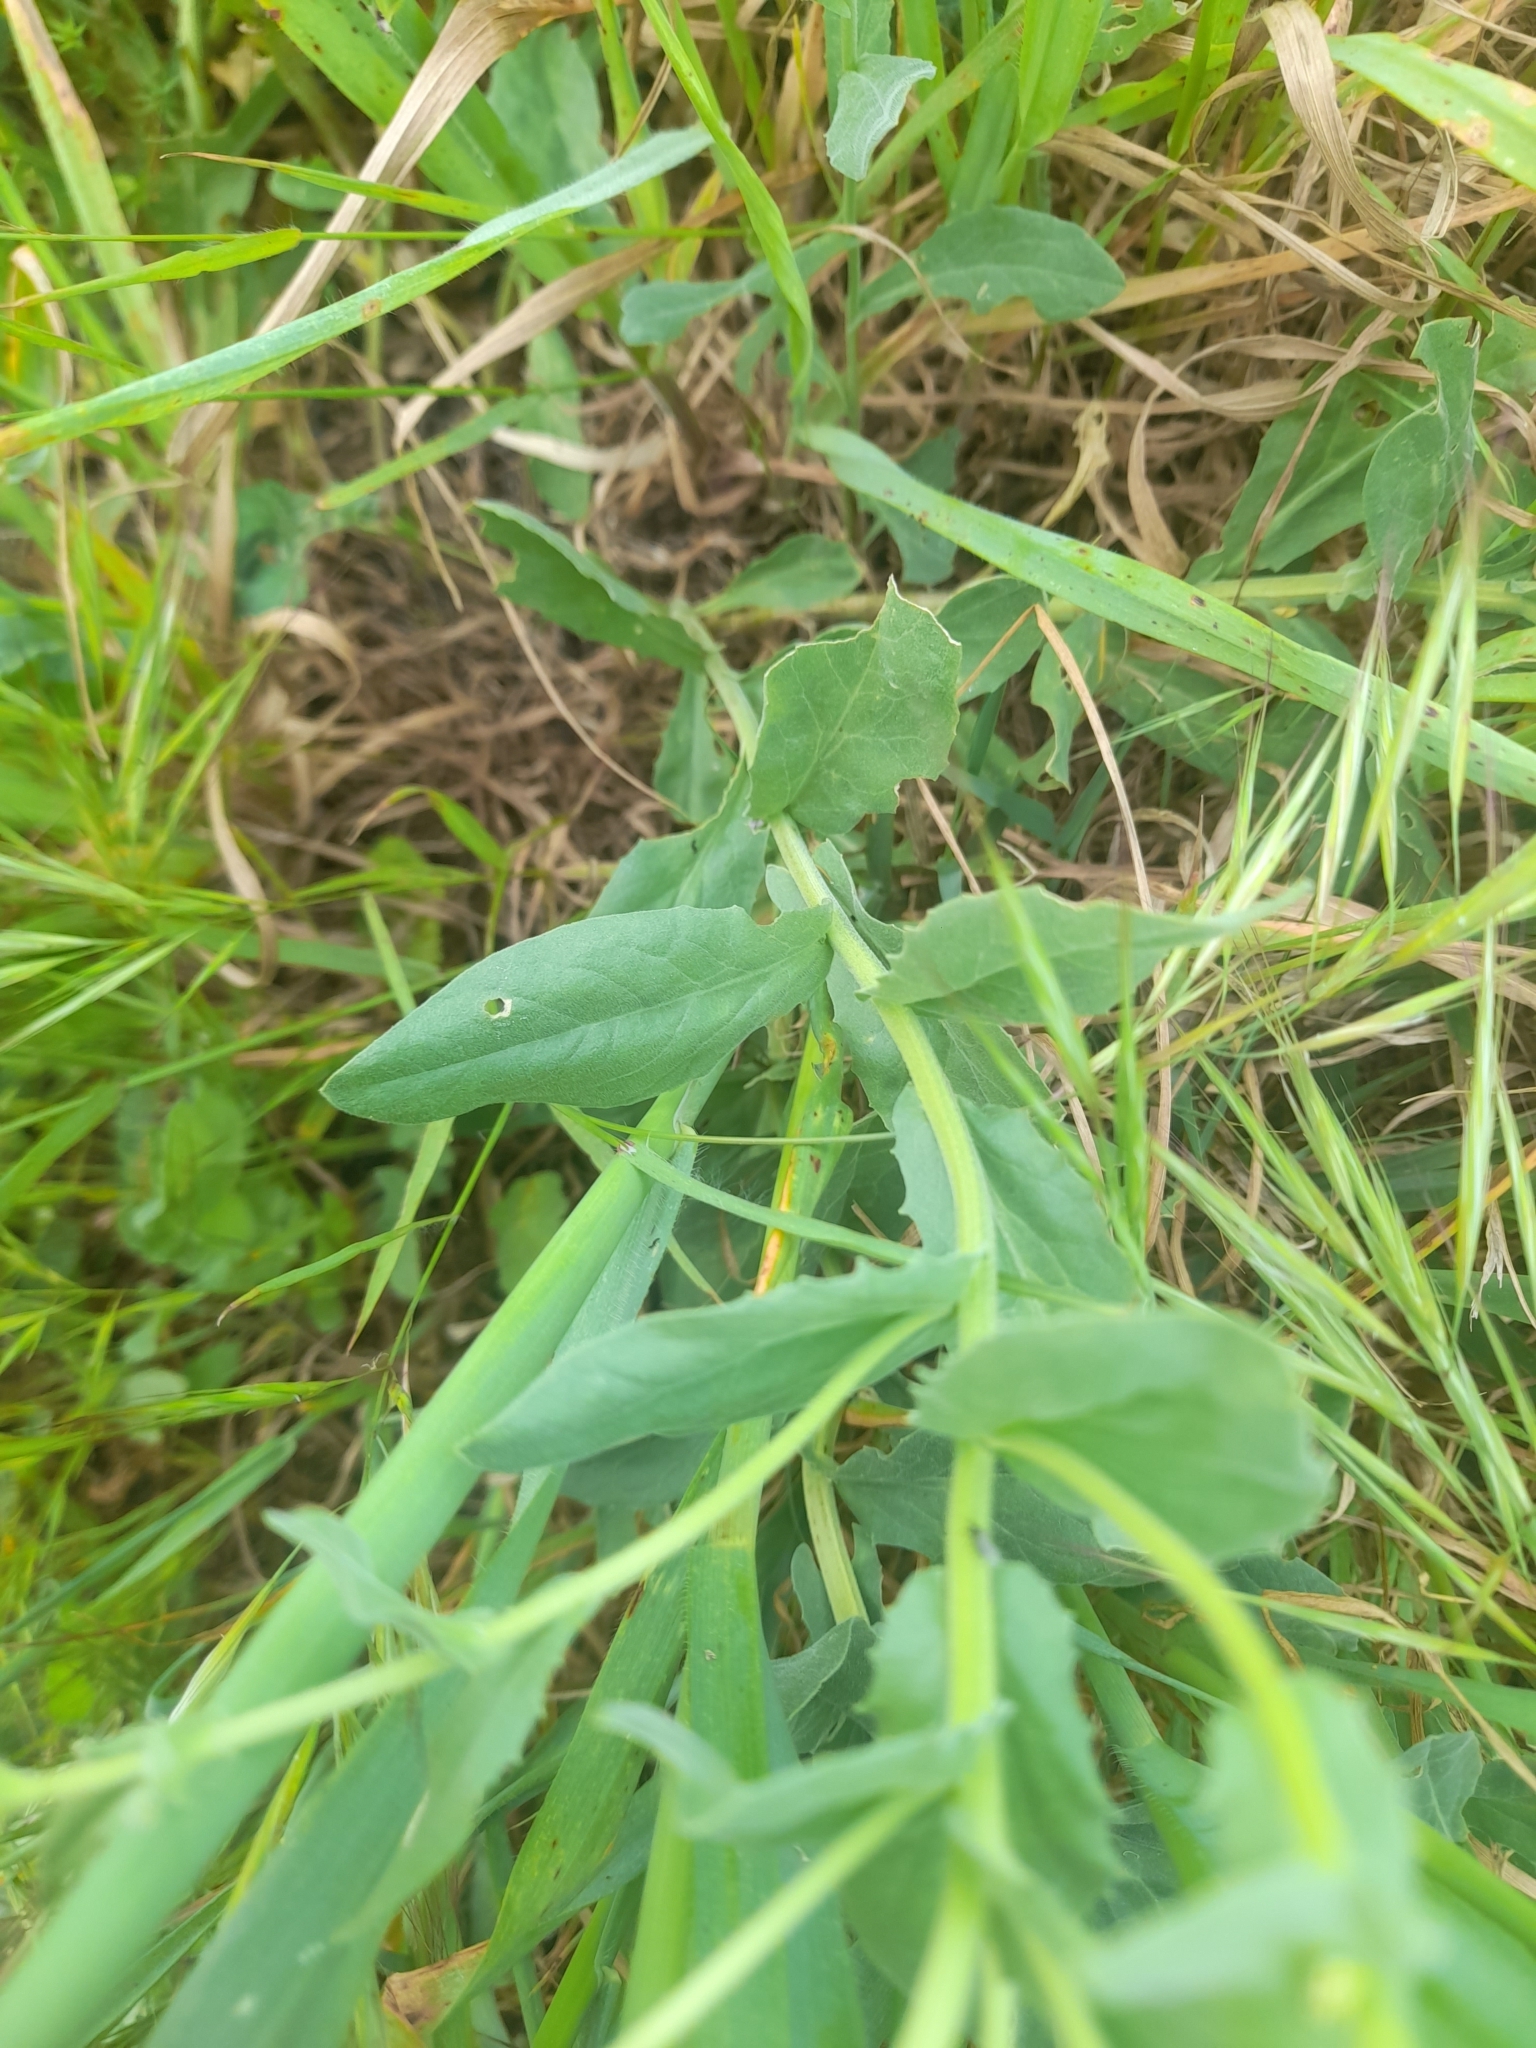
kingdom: Plantae
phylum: Tracheophyta
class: Magnoliopsida
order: Brassicales
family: Brassicaceae
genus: Lepidium
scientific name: Lepidium draba
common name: Hoary cress
